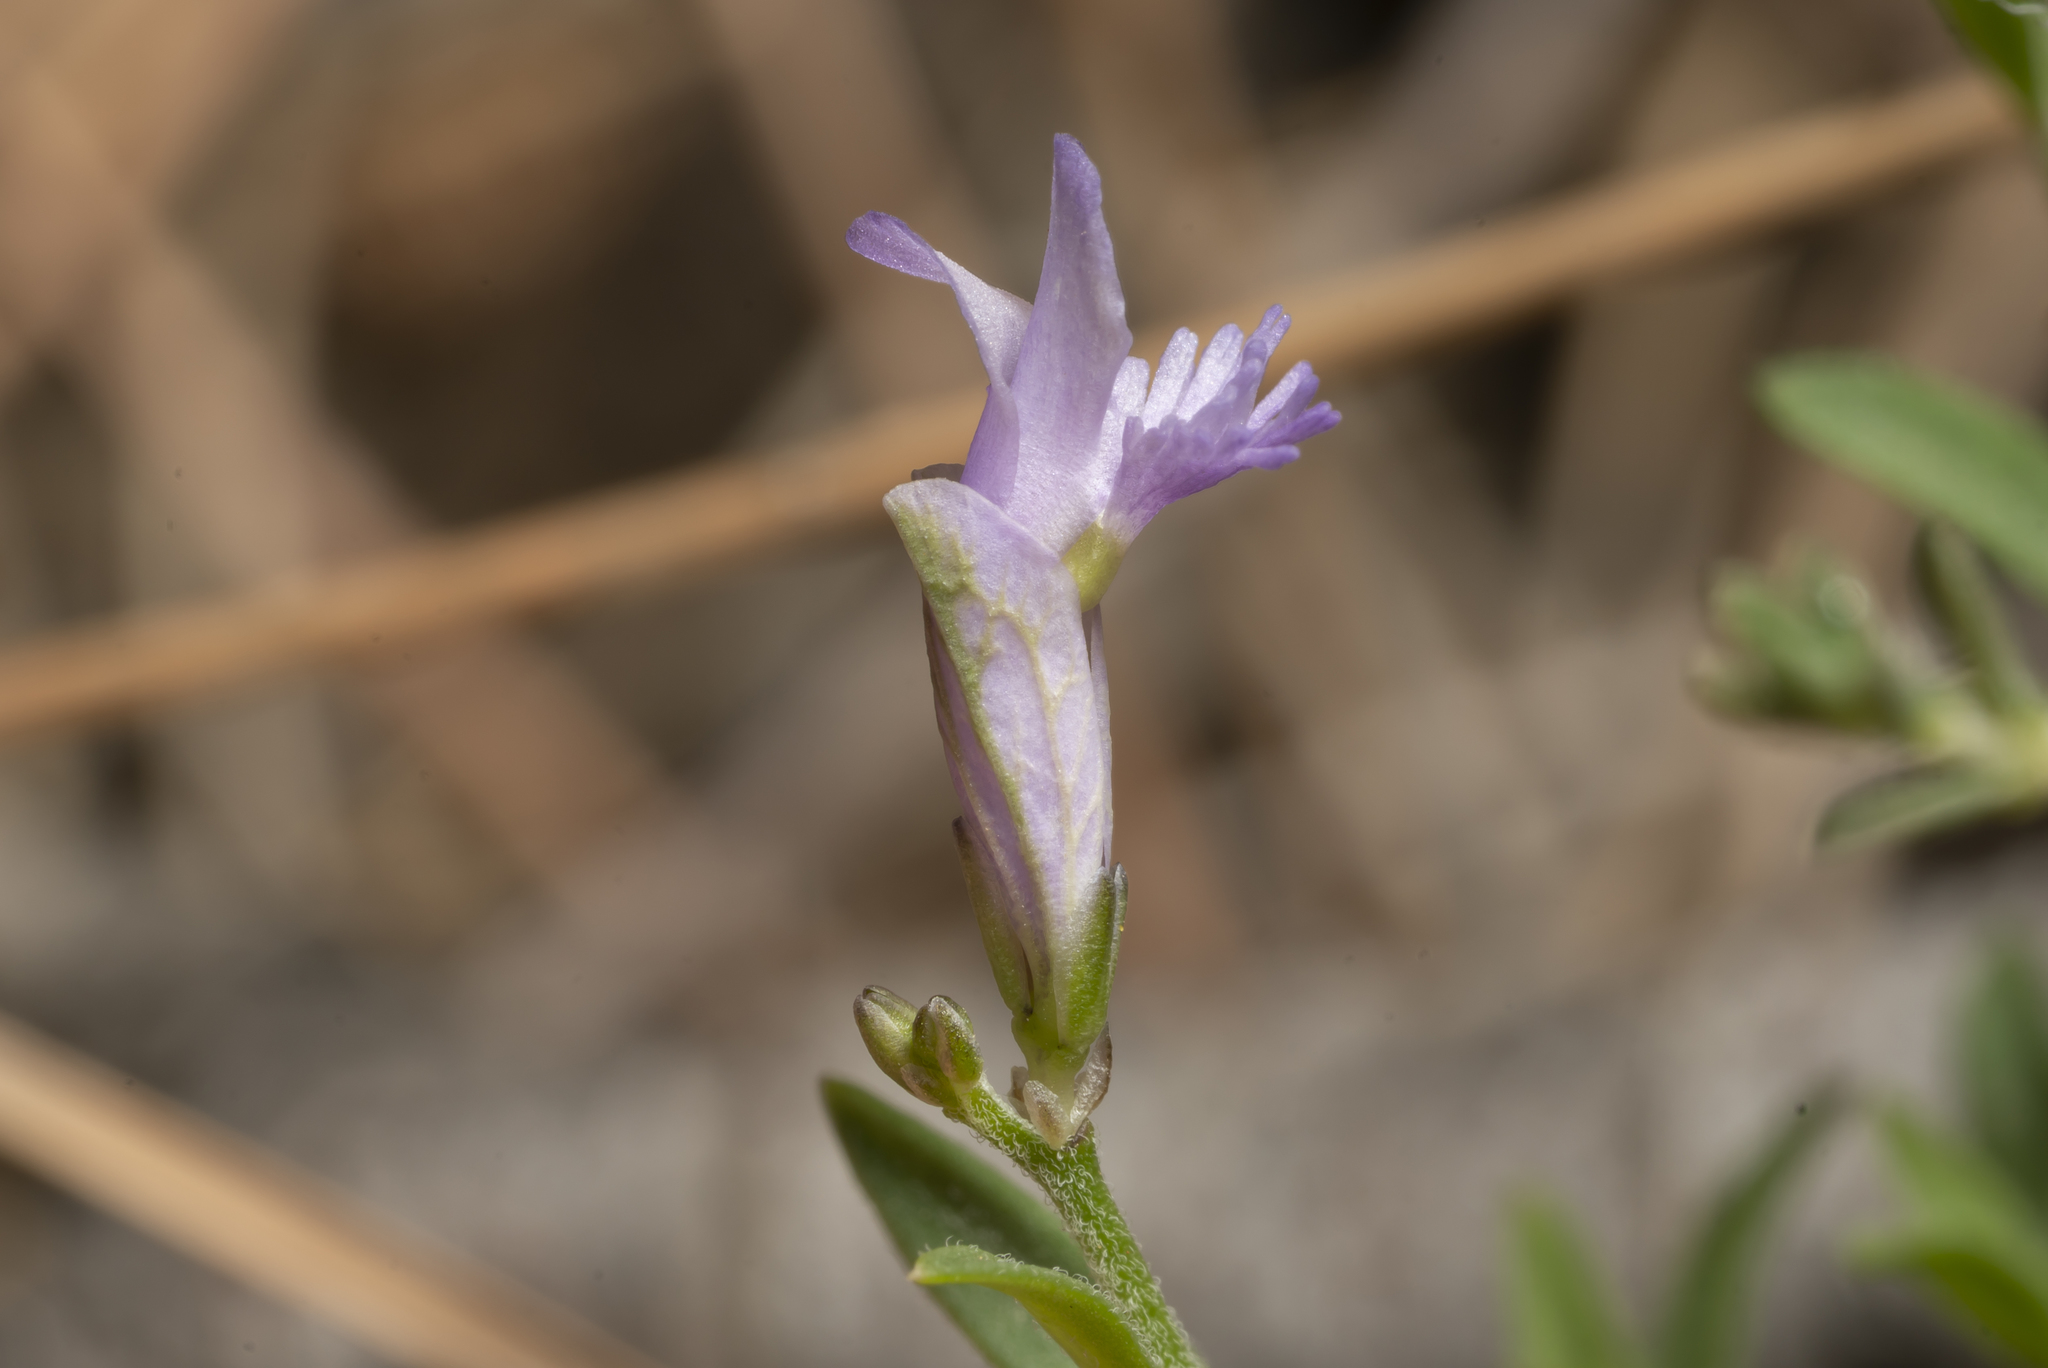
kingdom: Plantae
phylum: Tracheophyta
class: Magnoliopsida
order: Fabales
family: Polygalaceae
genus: Polygala
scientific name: Polygala venulosa
